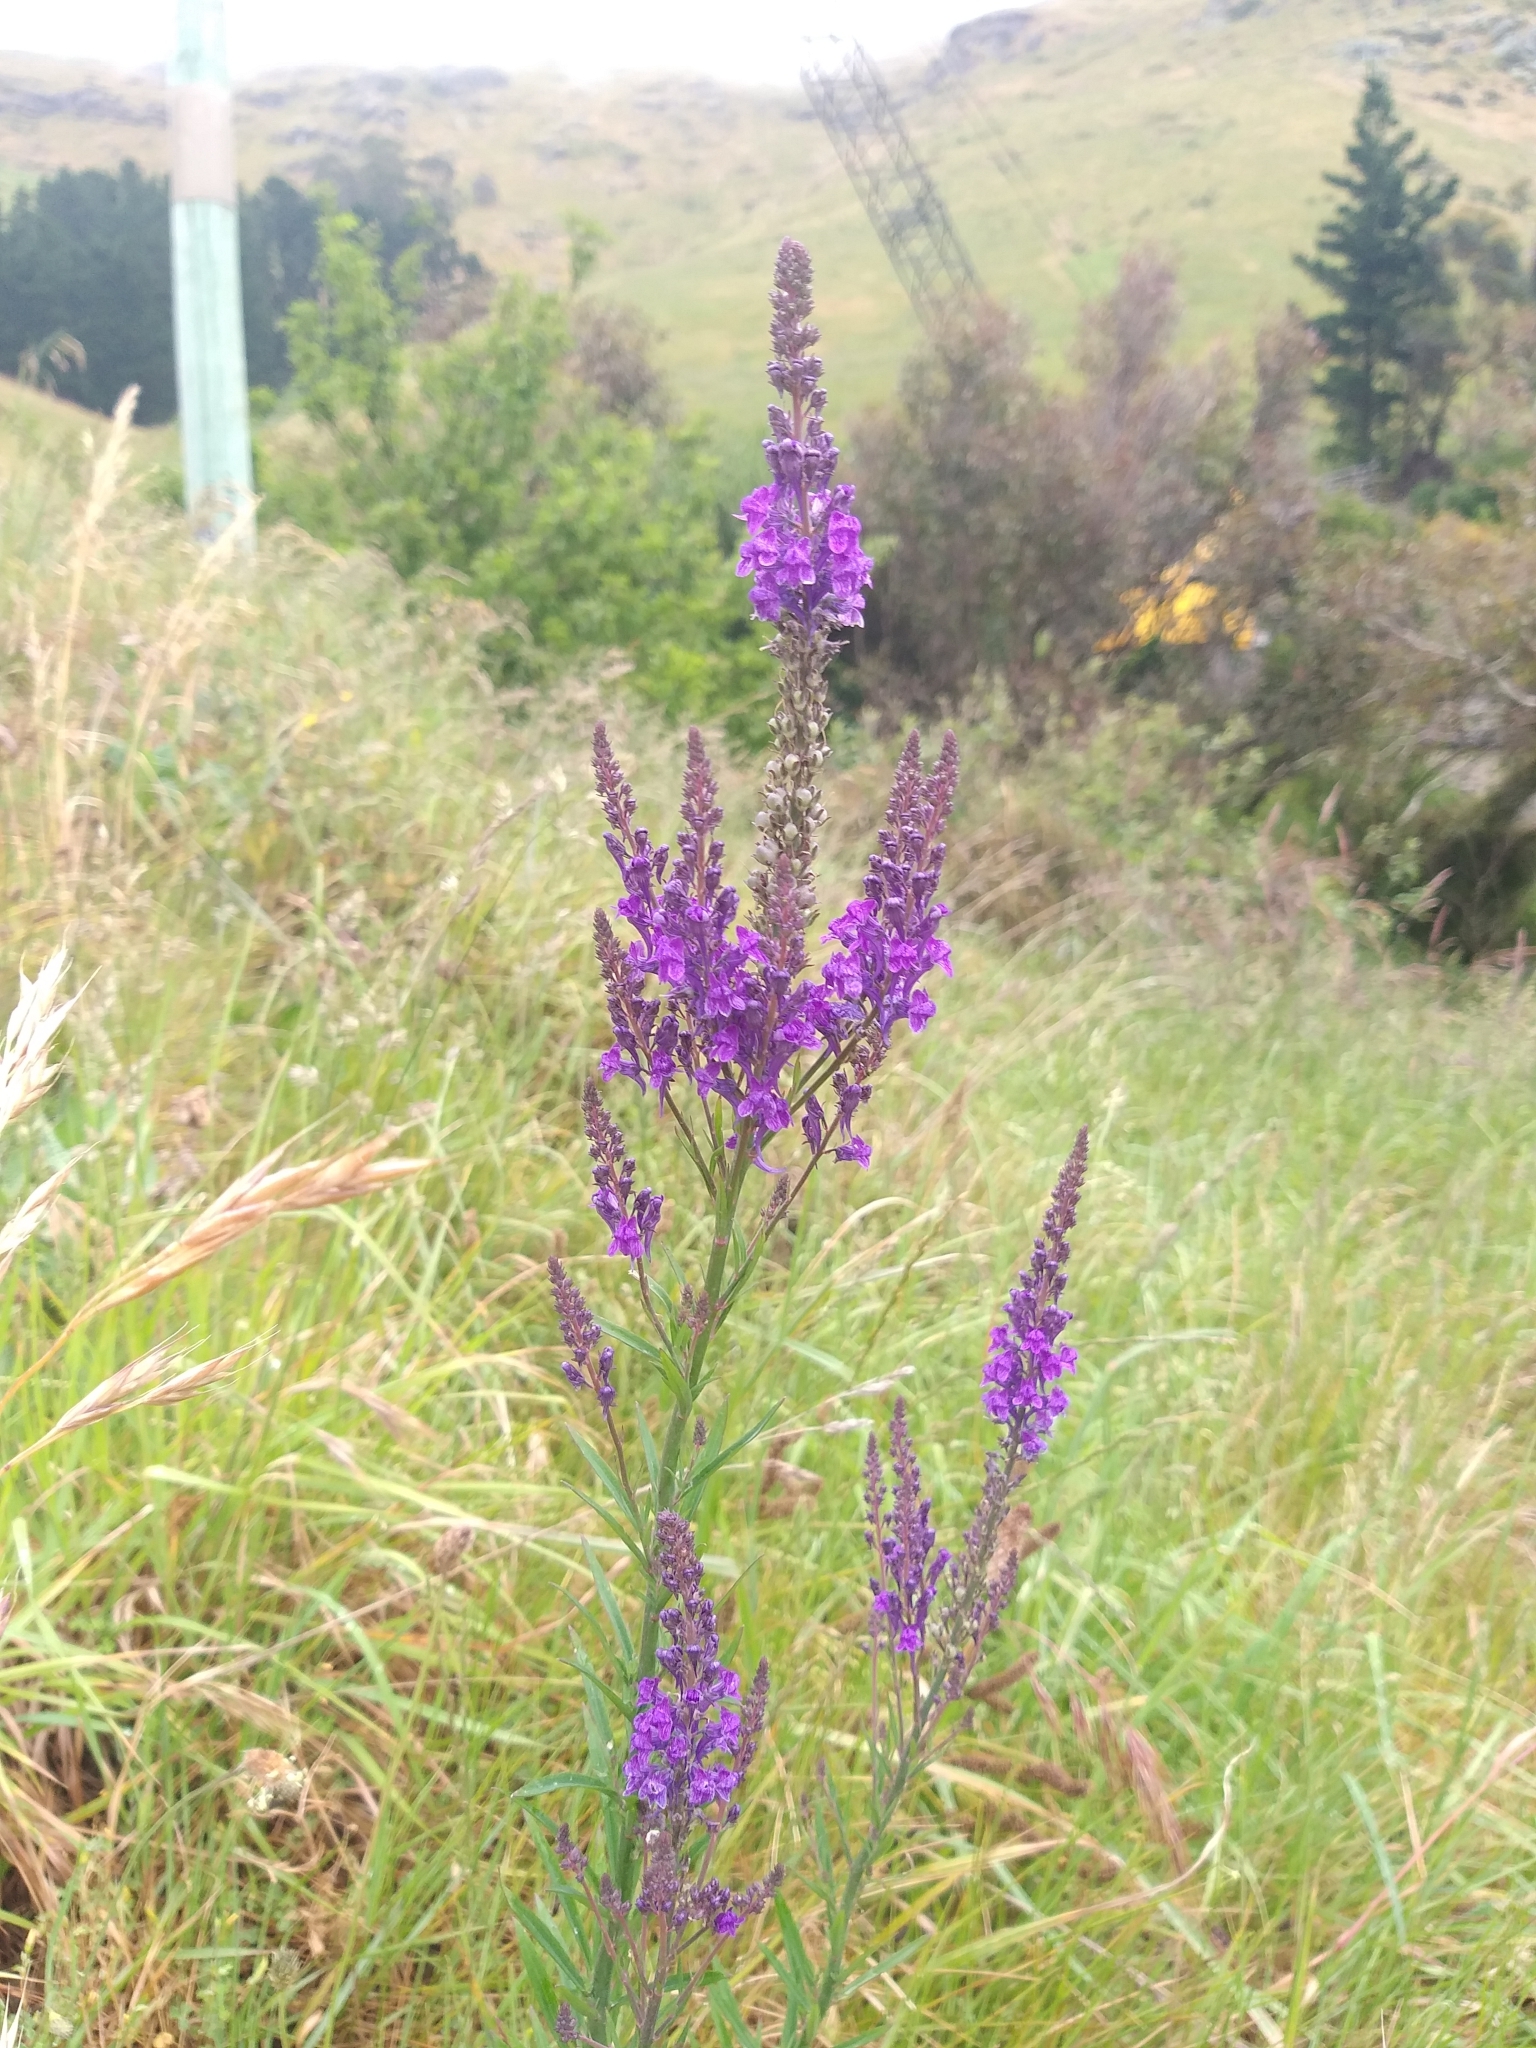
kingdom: Plantae
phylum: Tracheophyta
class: Magnoliopsida
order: Lamiales
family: Plantaginaceae
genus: Linaria
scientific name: Linaria purpurea
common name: Purple toadflax
